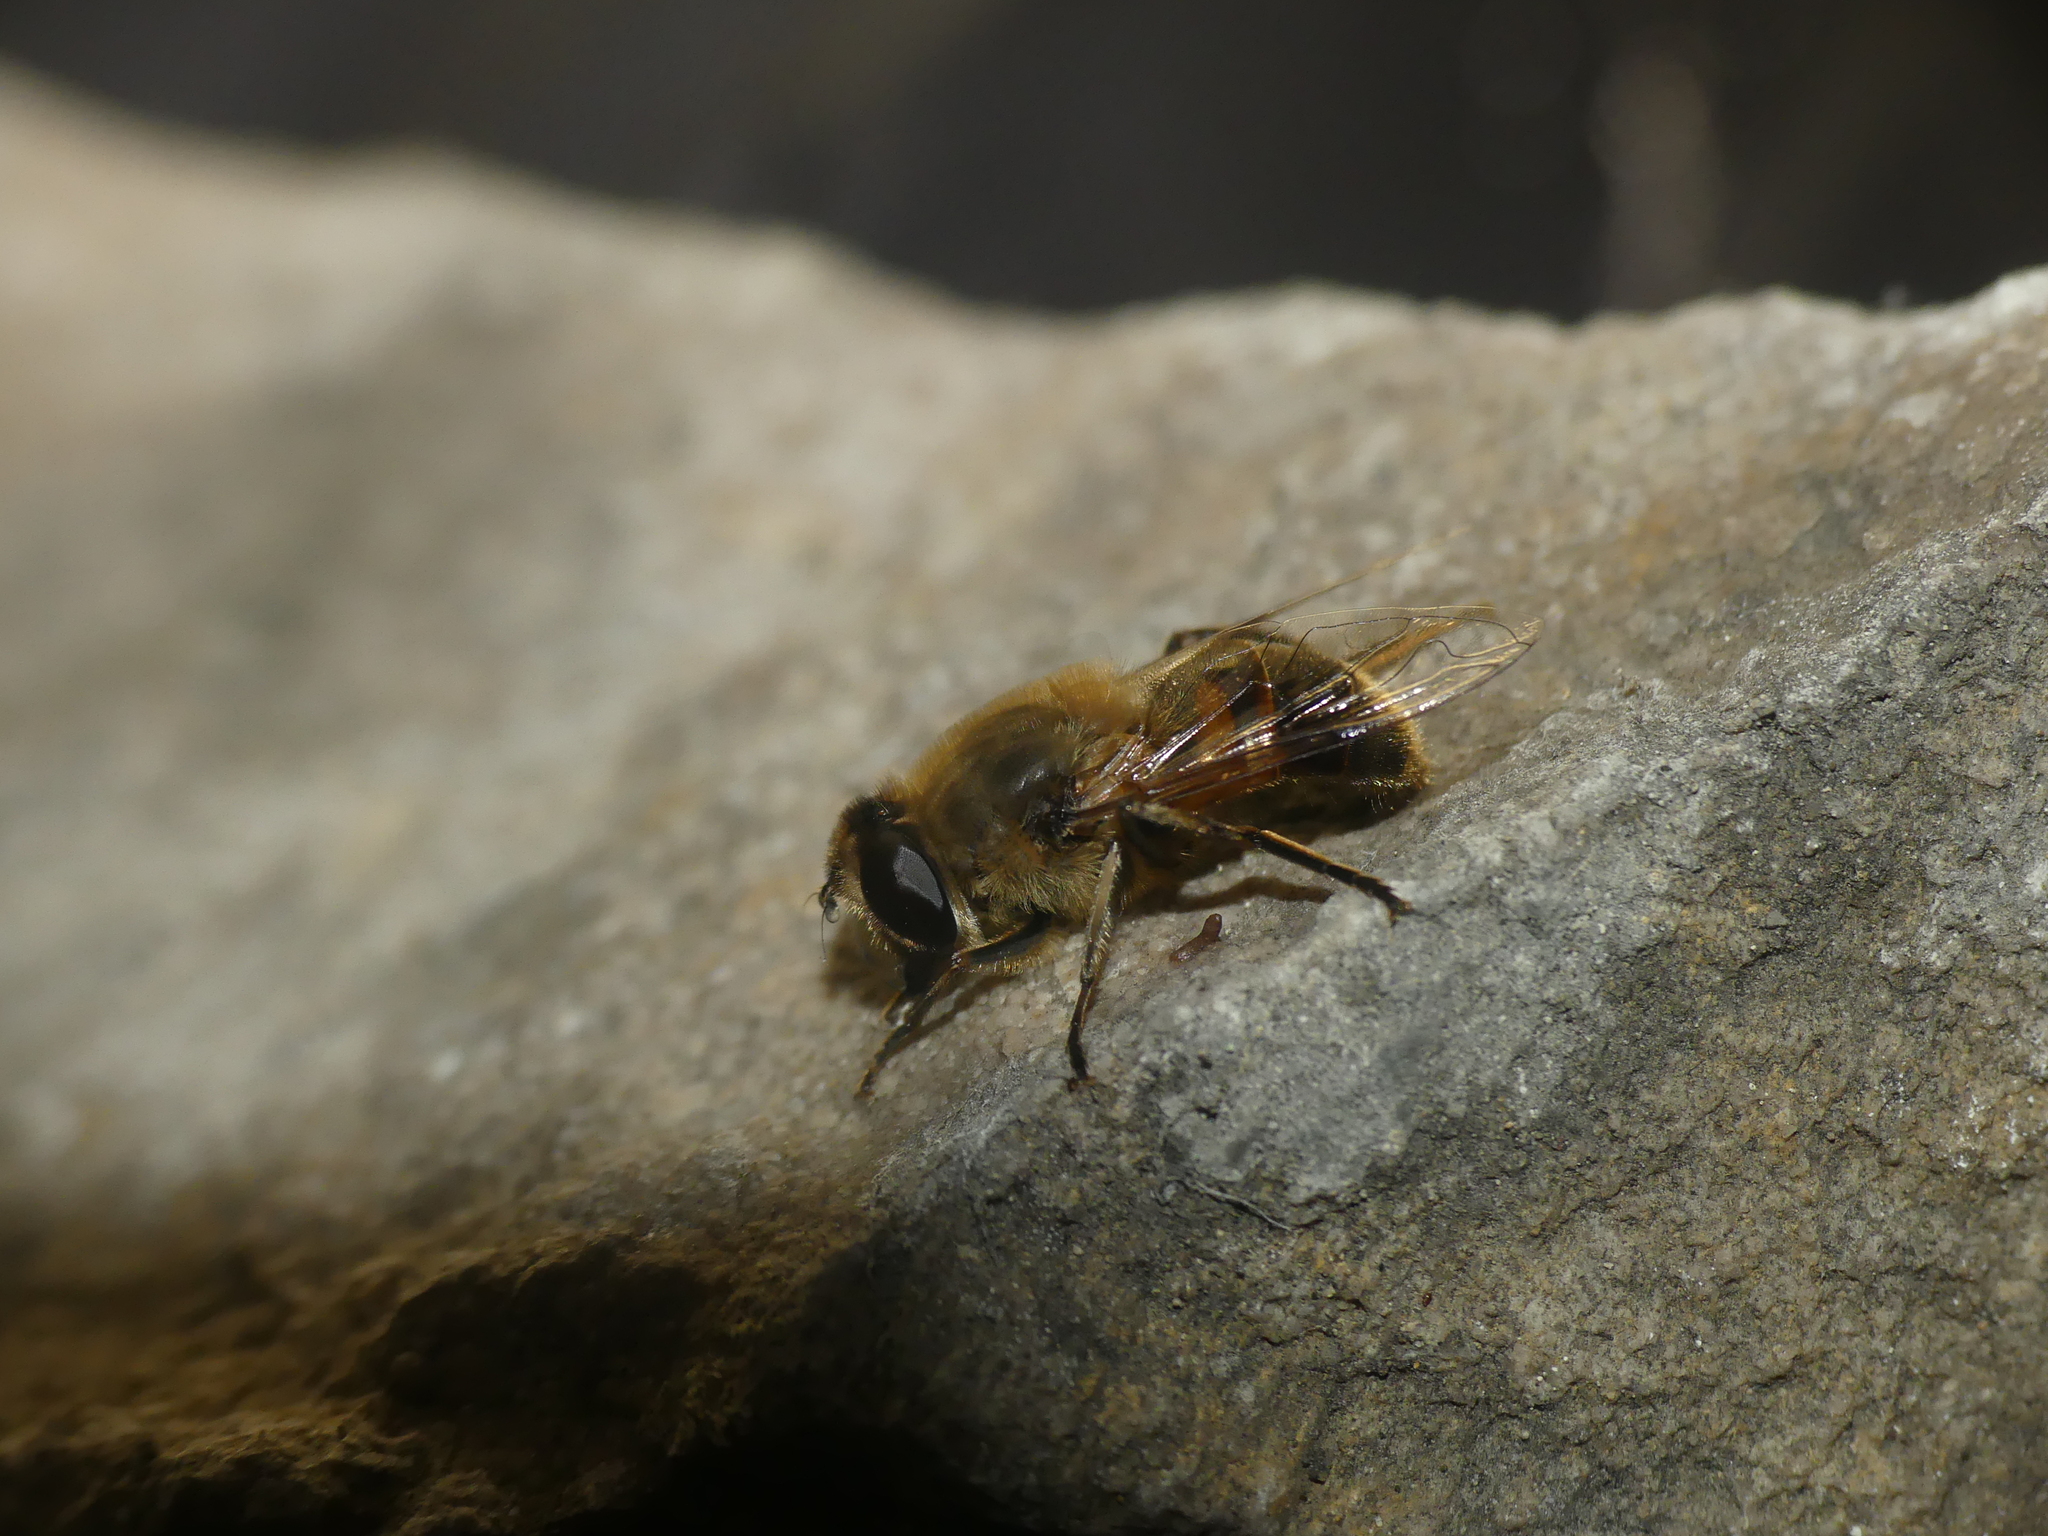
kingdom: Animalia
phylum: Arthropoda
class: Insecta
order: Diptera
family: Syrphidae
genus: Eristalis
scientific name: Eristalis tenax
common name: Drone fly
